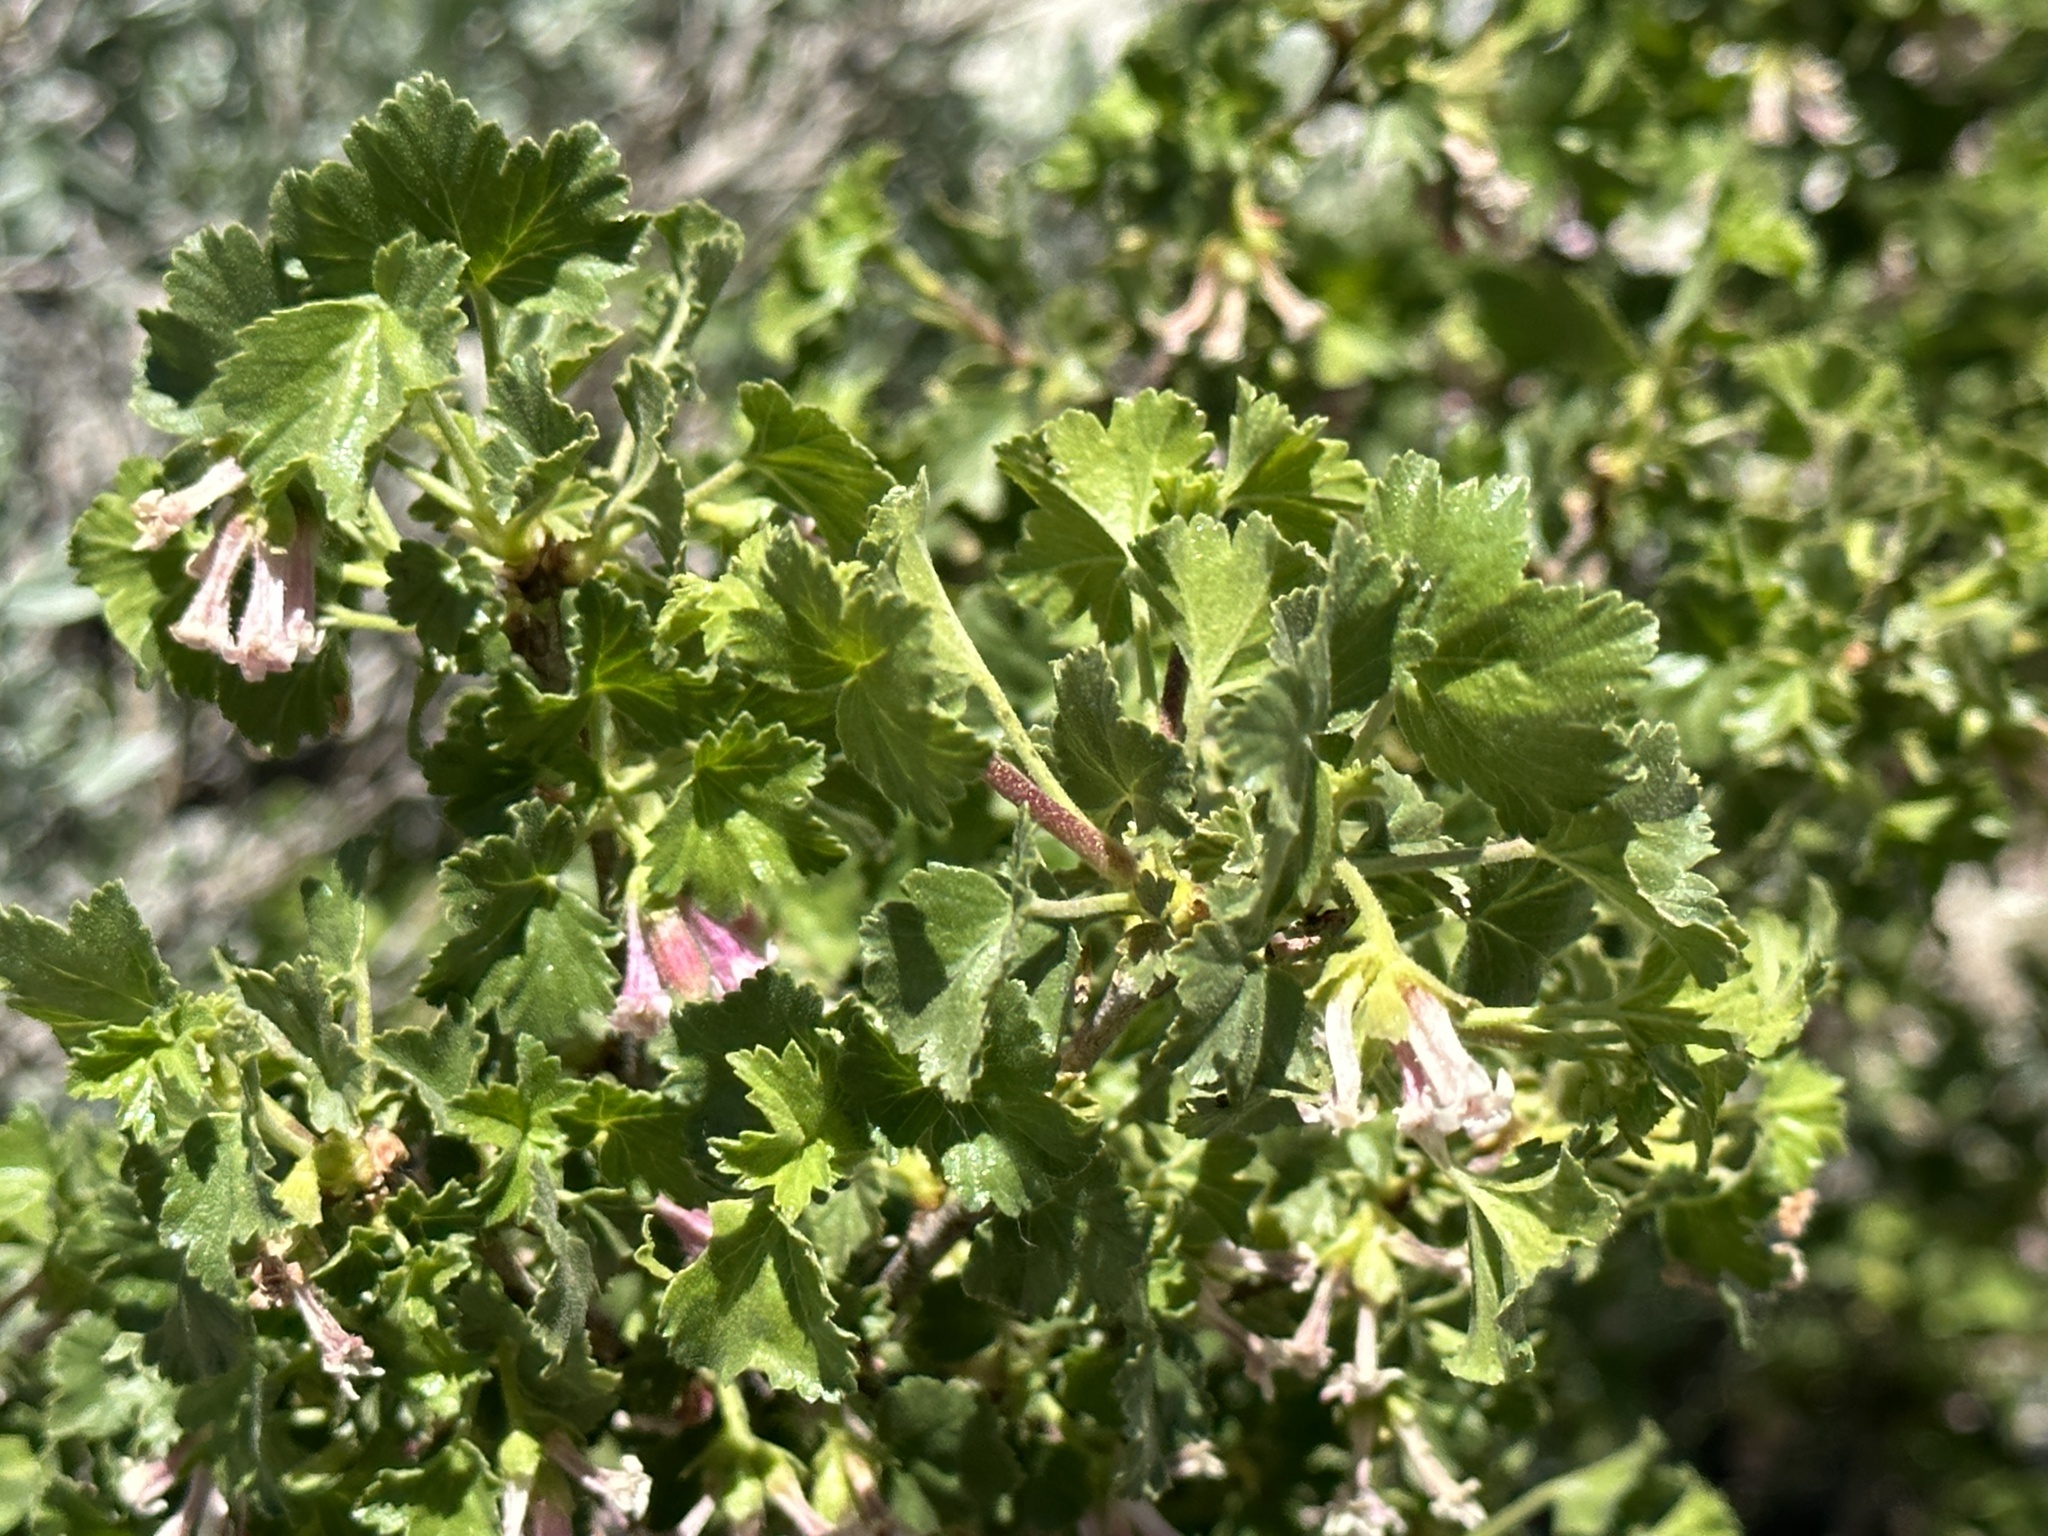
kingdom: Plantae
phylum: Tracheophyta
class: Magnoliopsida
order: Saxifragales
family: Grossulariaceae
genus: Ribes
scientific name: Ribes cereum
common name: Wax currant
